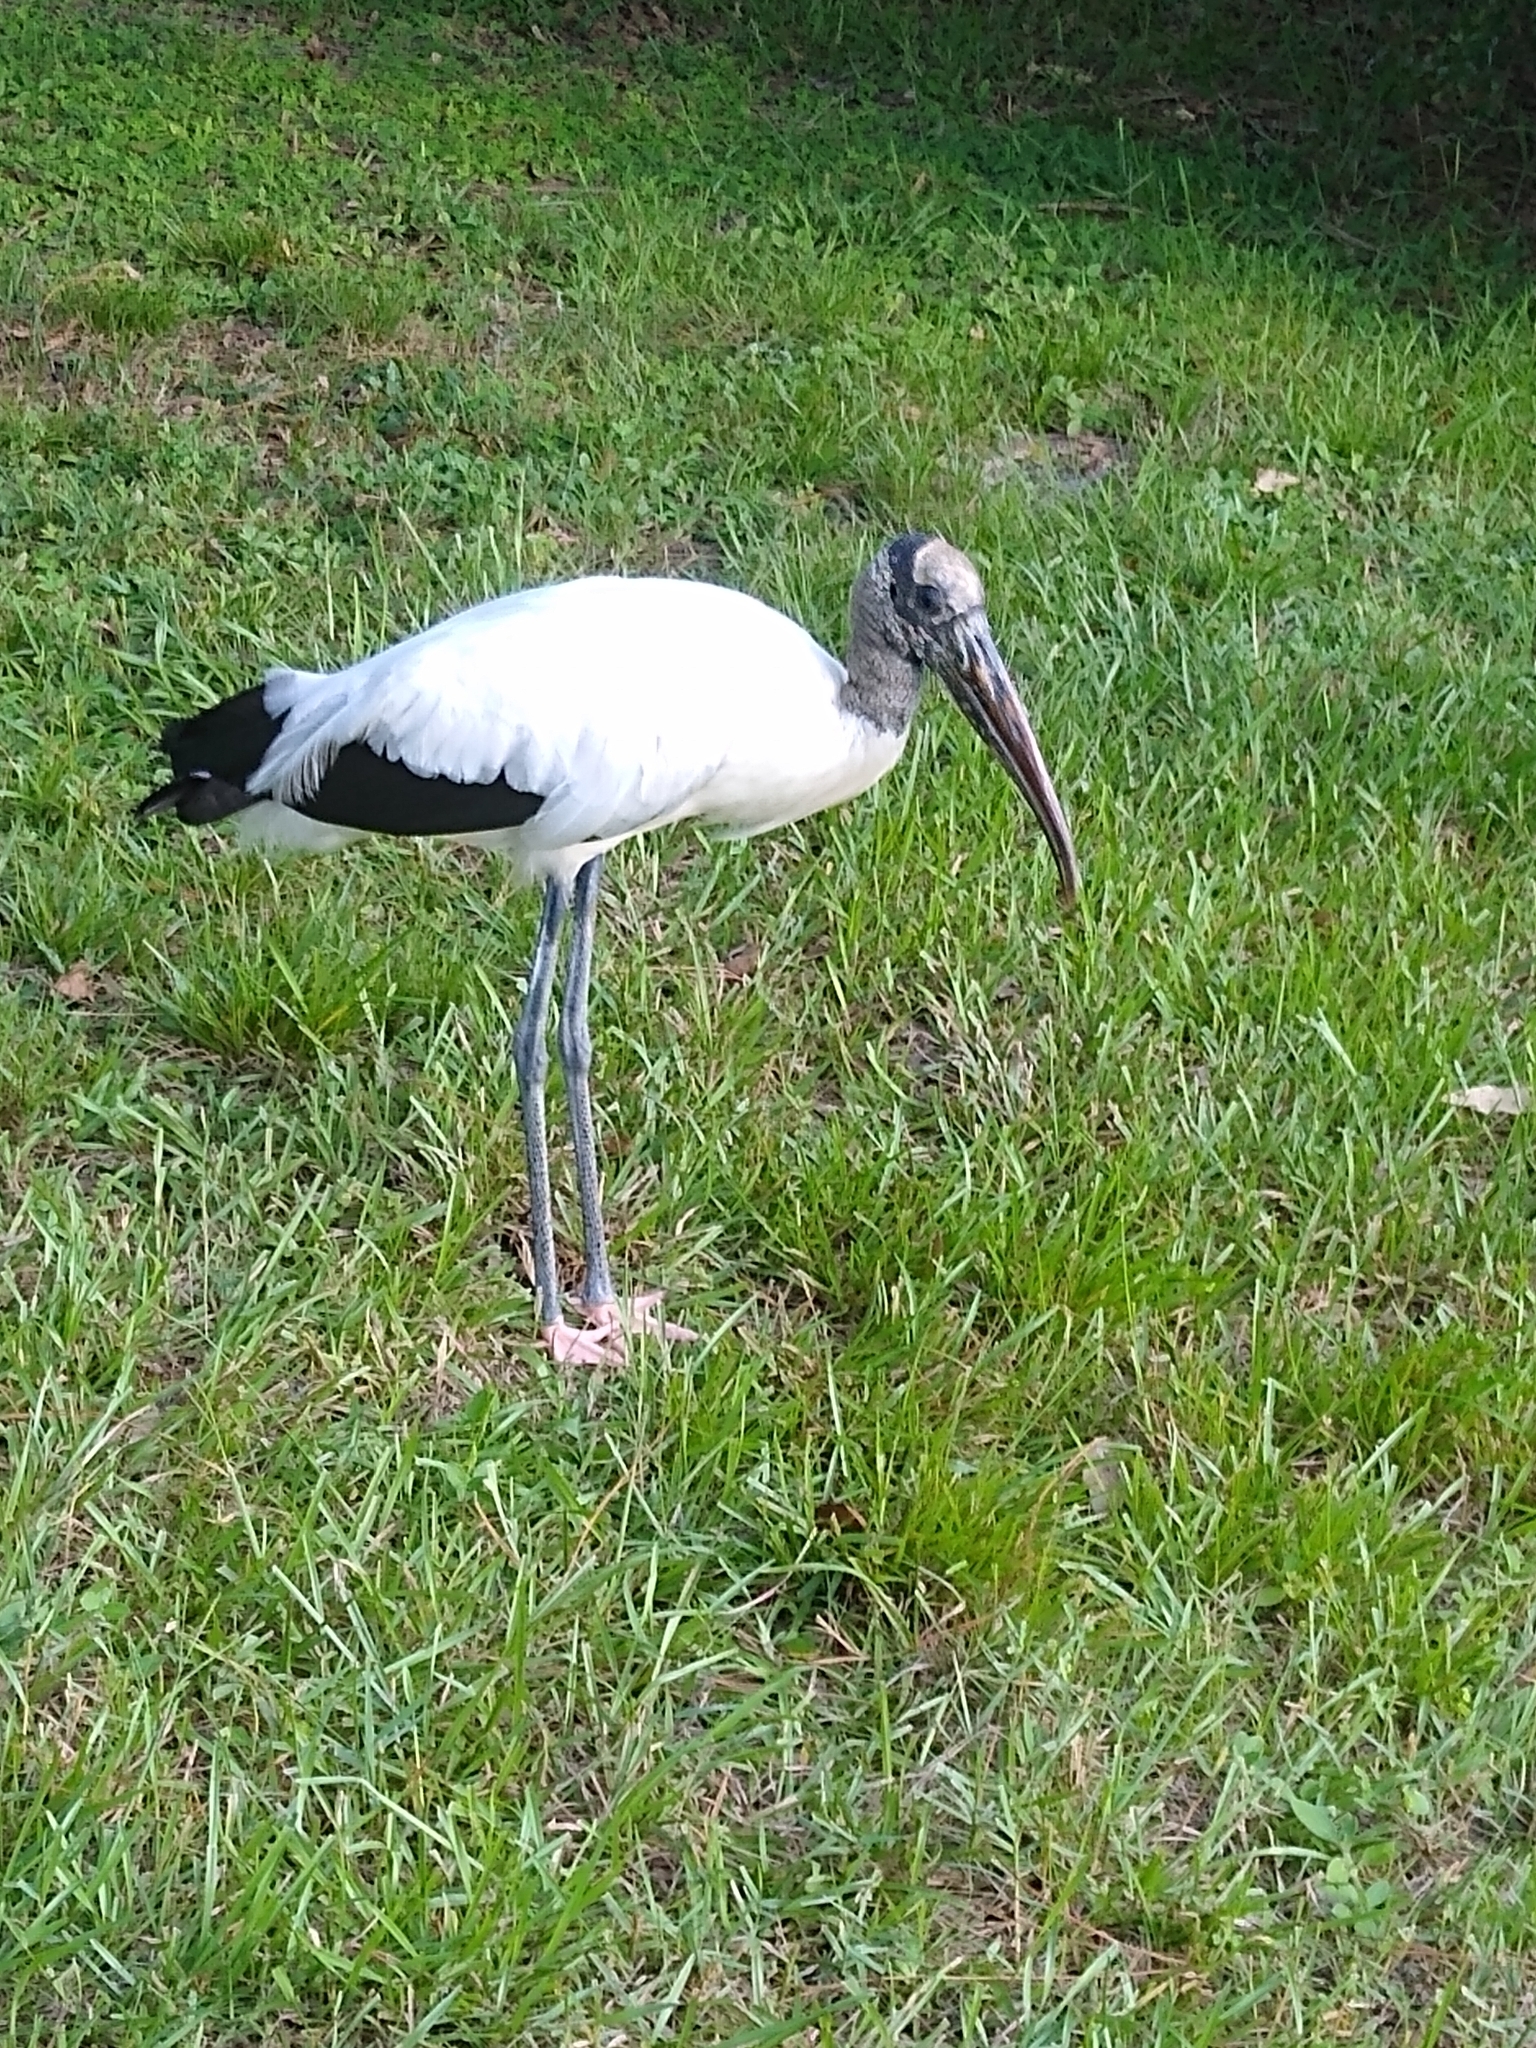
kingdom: Animalia
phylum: Chordata
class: Aves
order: Ciconiiformes
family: Ciconiidae
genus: Mycteria
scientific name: Mycteria americana
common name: Wood stork
